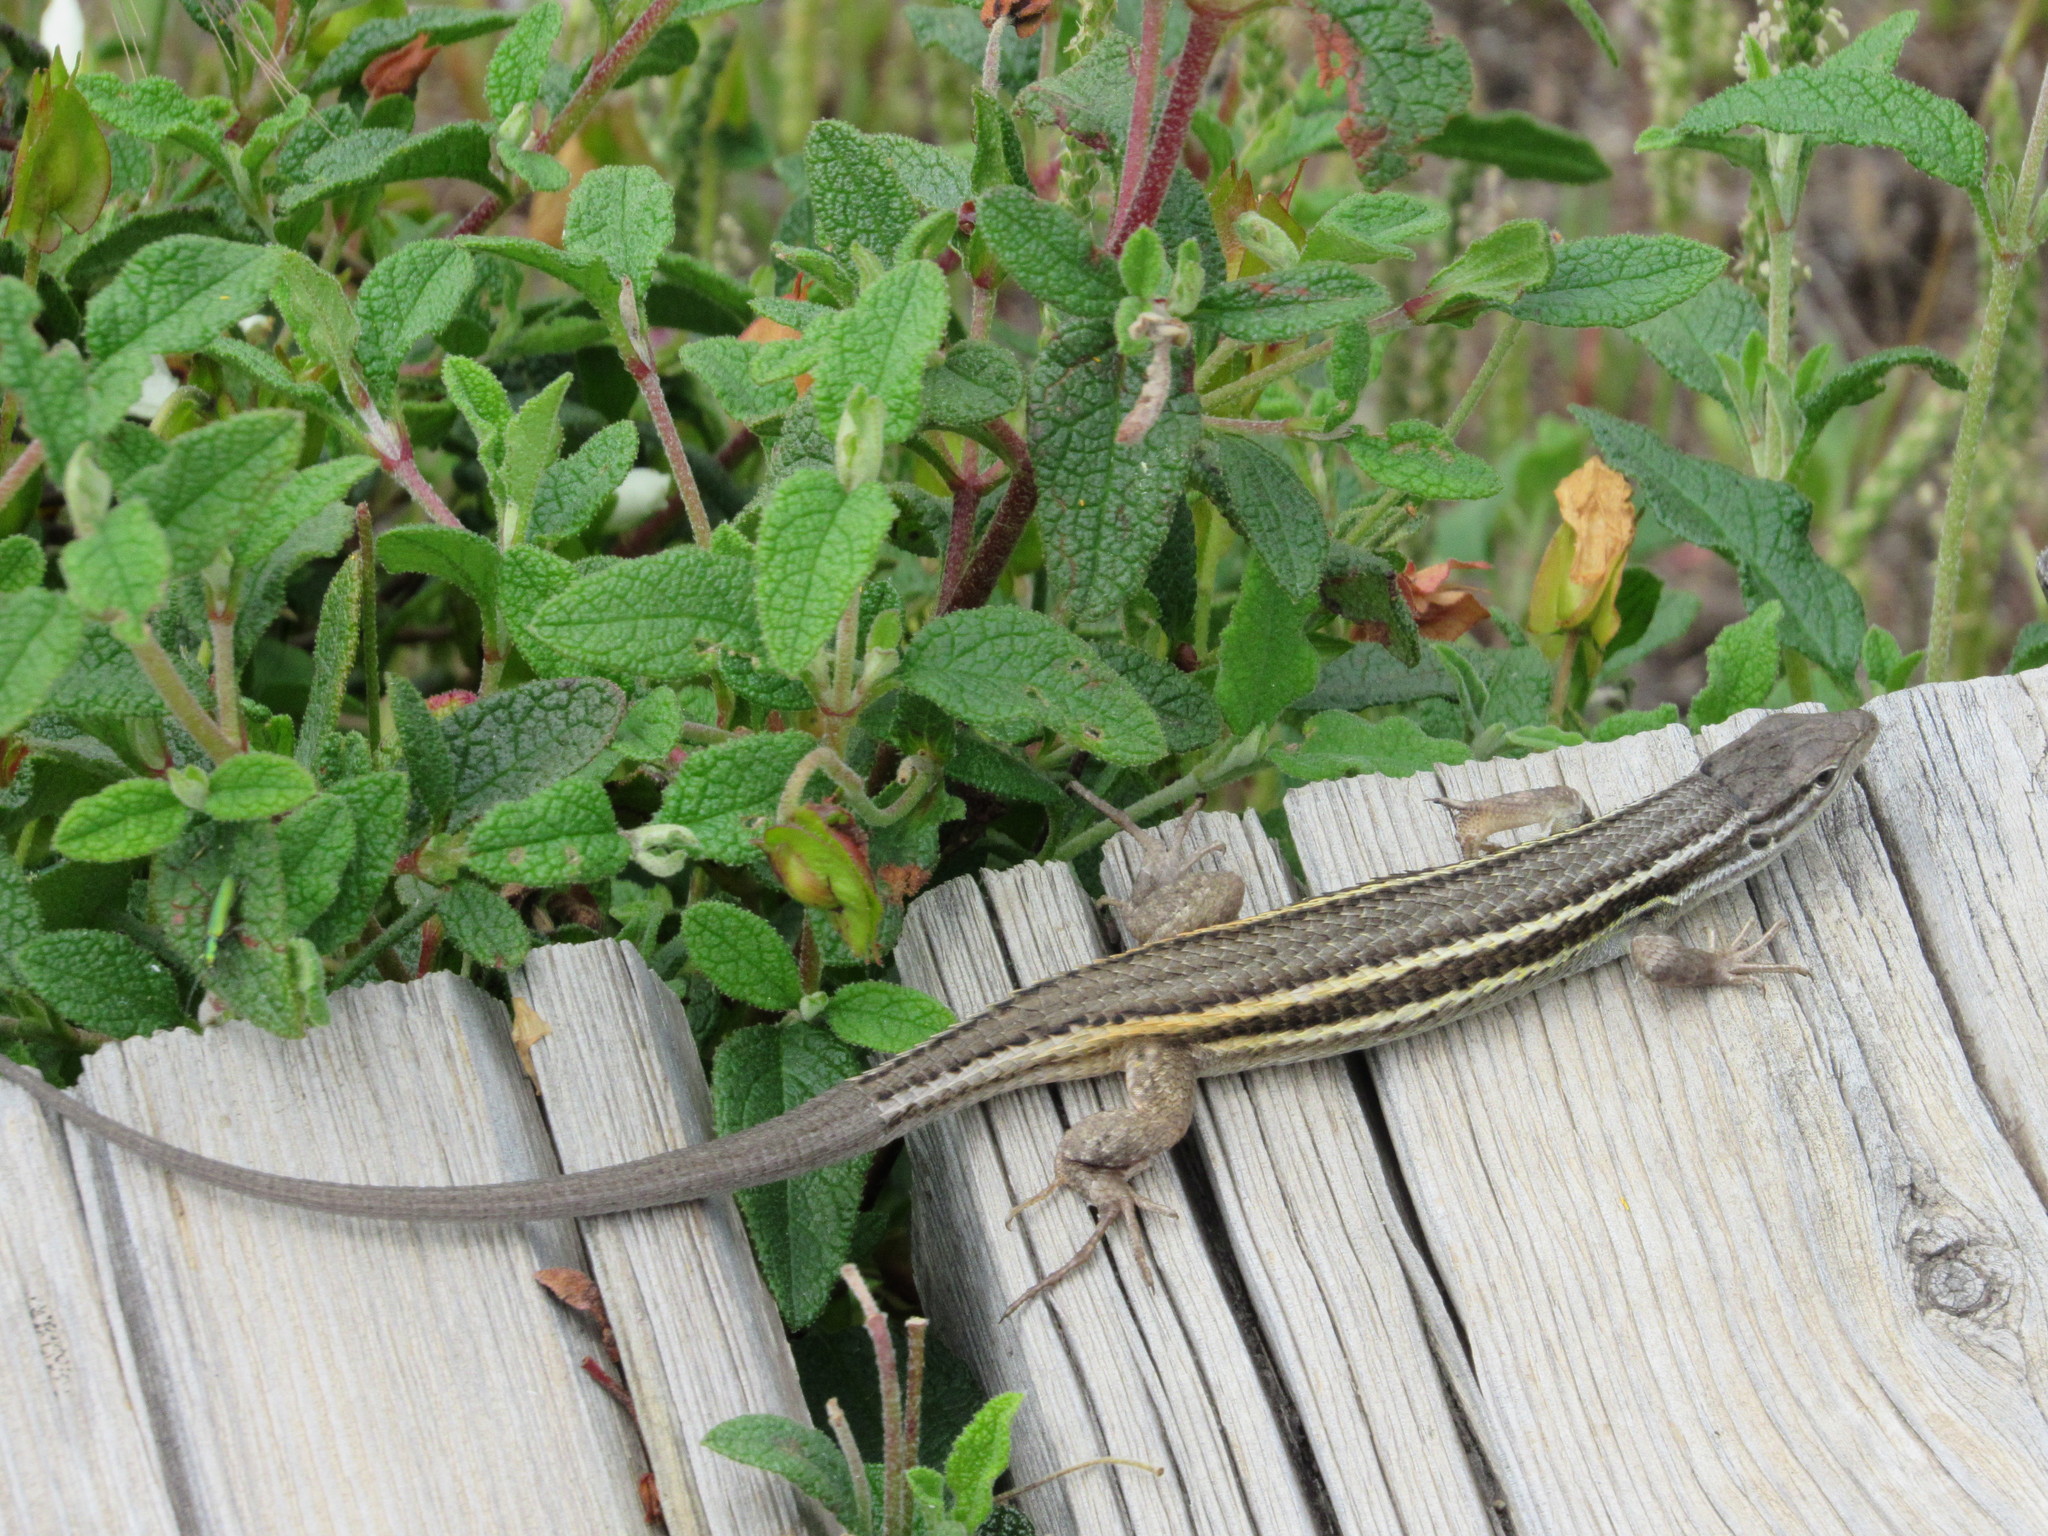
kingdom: Animalia
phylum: Chordata
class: Squamata
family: Lacertidae
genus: Psammodromus
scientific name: Psammodromus algirus
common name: Algerian psammodromus
